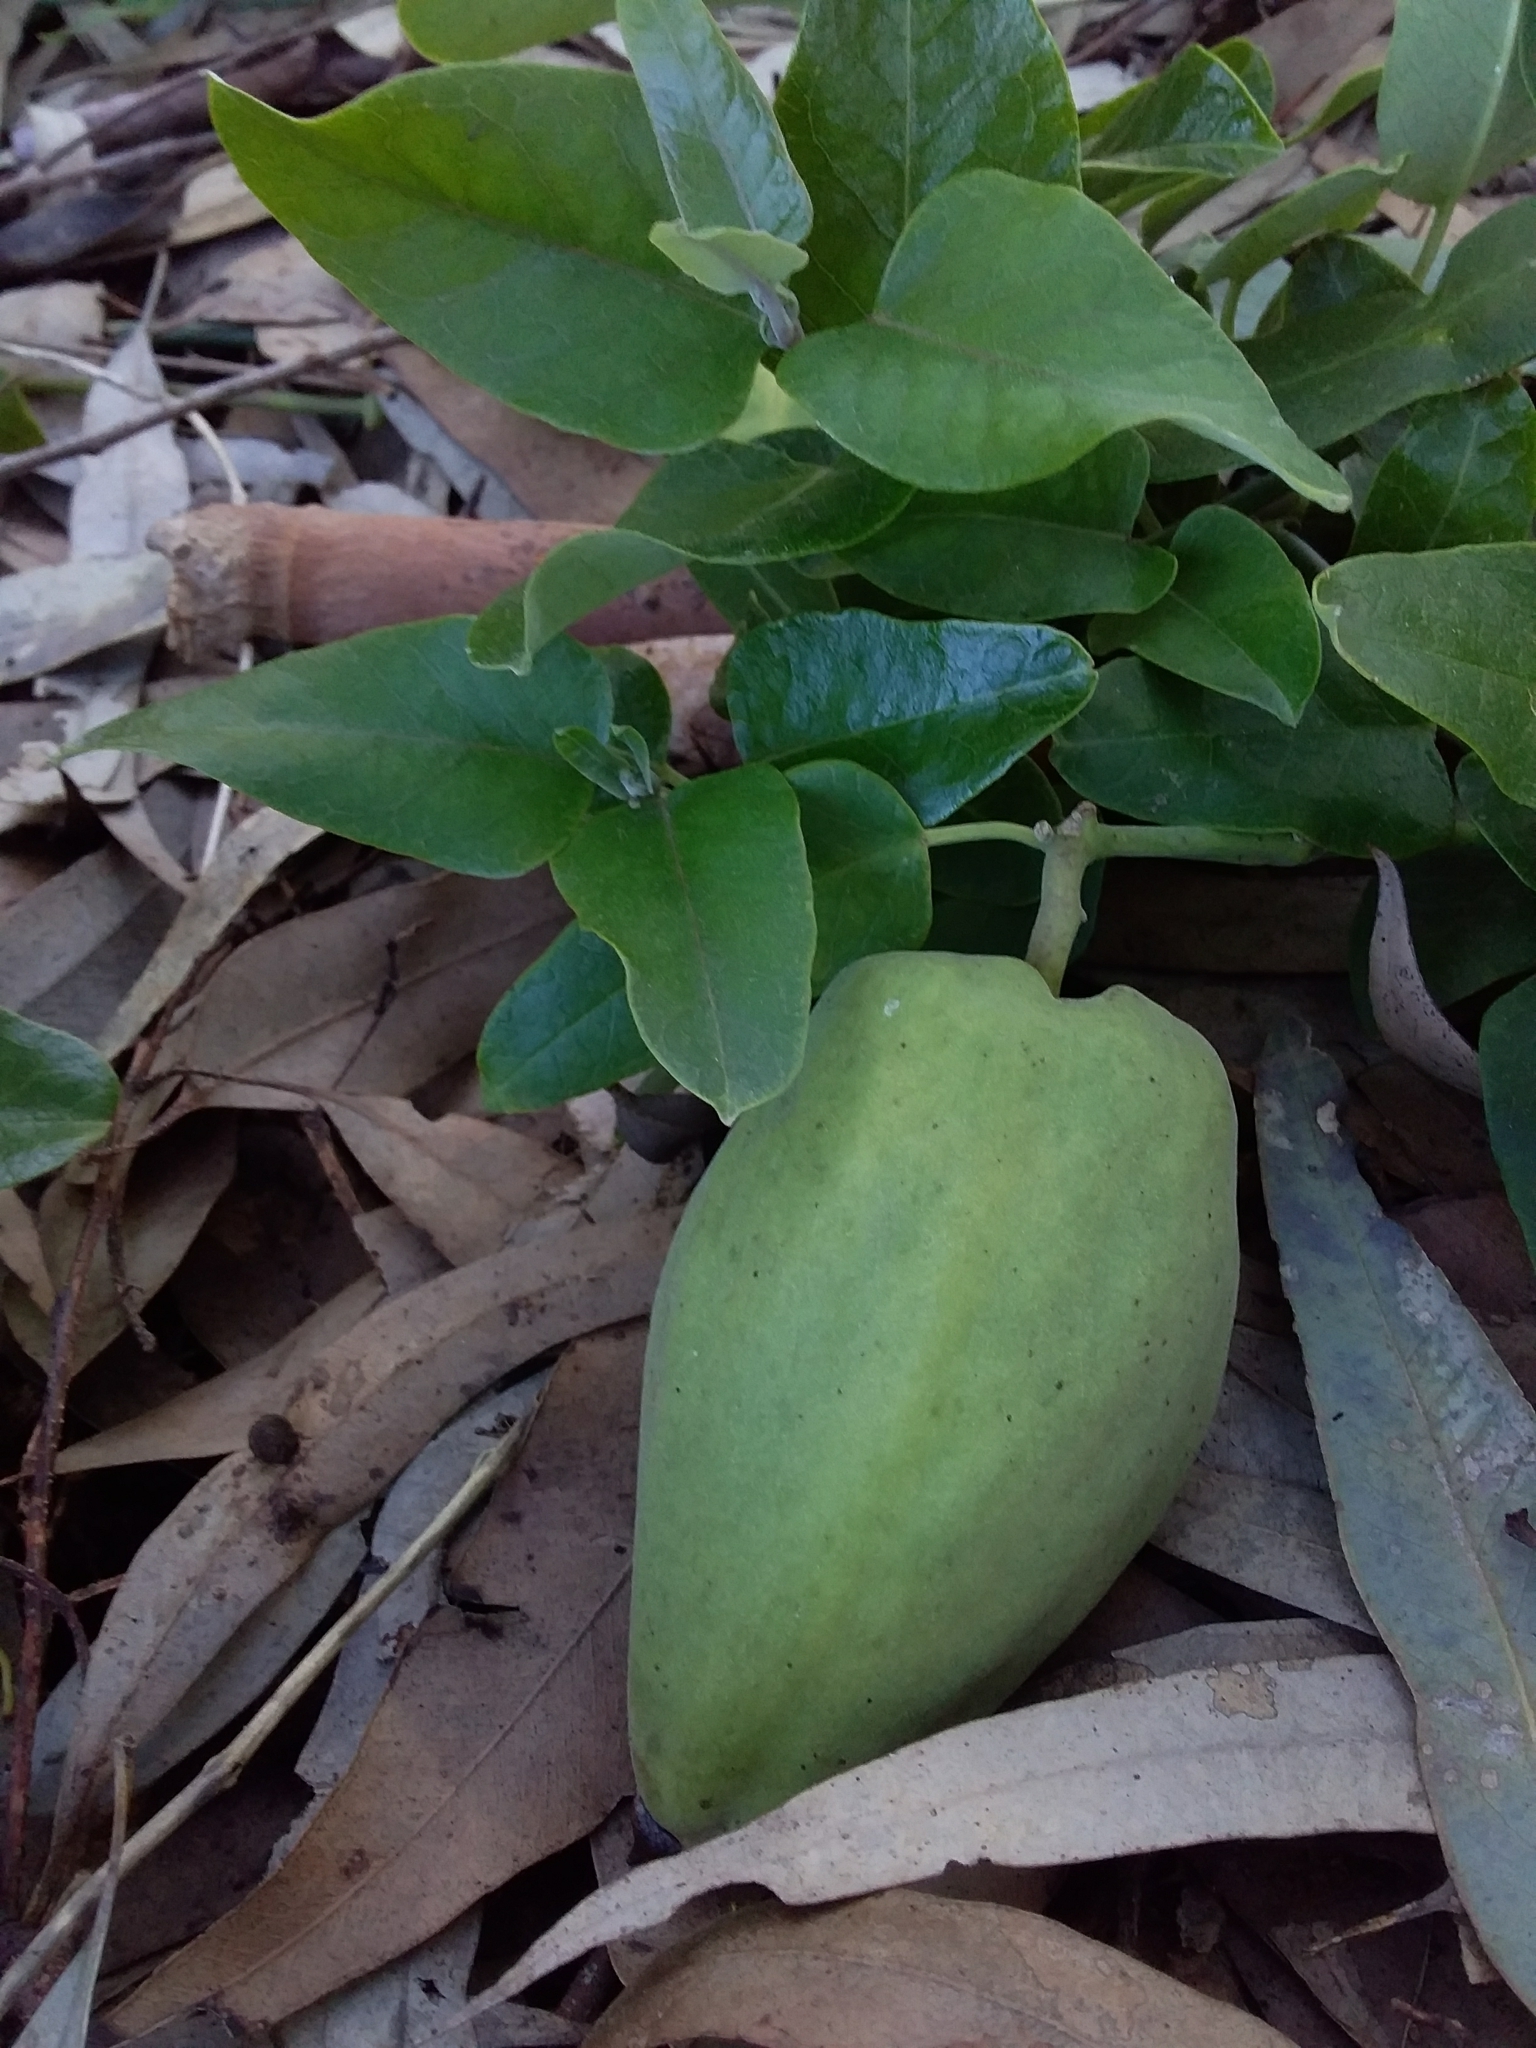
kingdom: Plantae
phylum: Tracheophyta
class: Magnoliopsida
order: Gentianales
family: Apocynaceae
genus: Araujia
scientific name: Araujia sericifera
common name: White bladderflower
